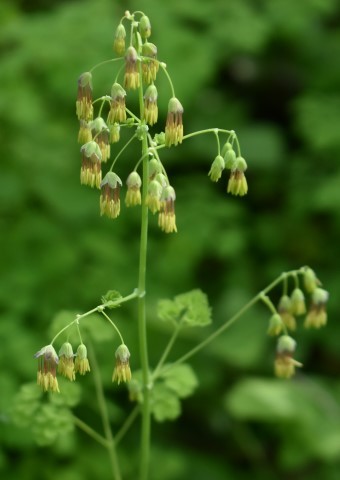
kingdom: Plantae
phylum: Tracheophyta
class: Magnoliopsida
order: Ranunculales
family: Ranunculaceae
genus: Thalictrum
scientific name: Thalictrum occidentale
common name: Western meadow-rue
